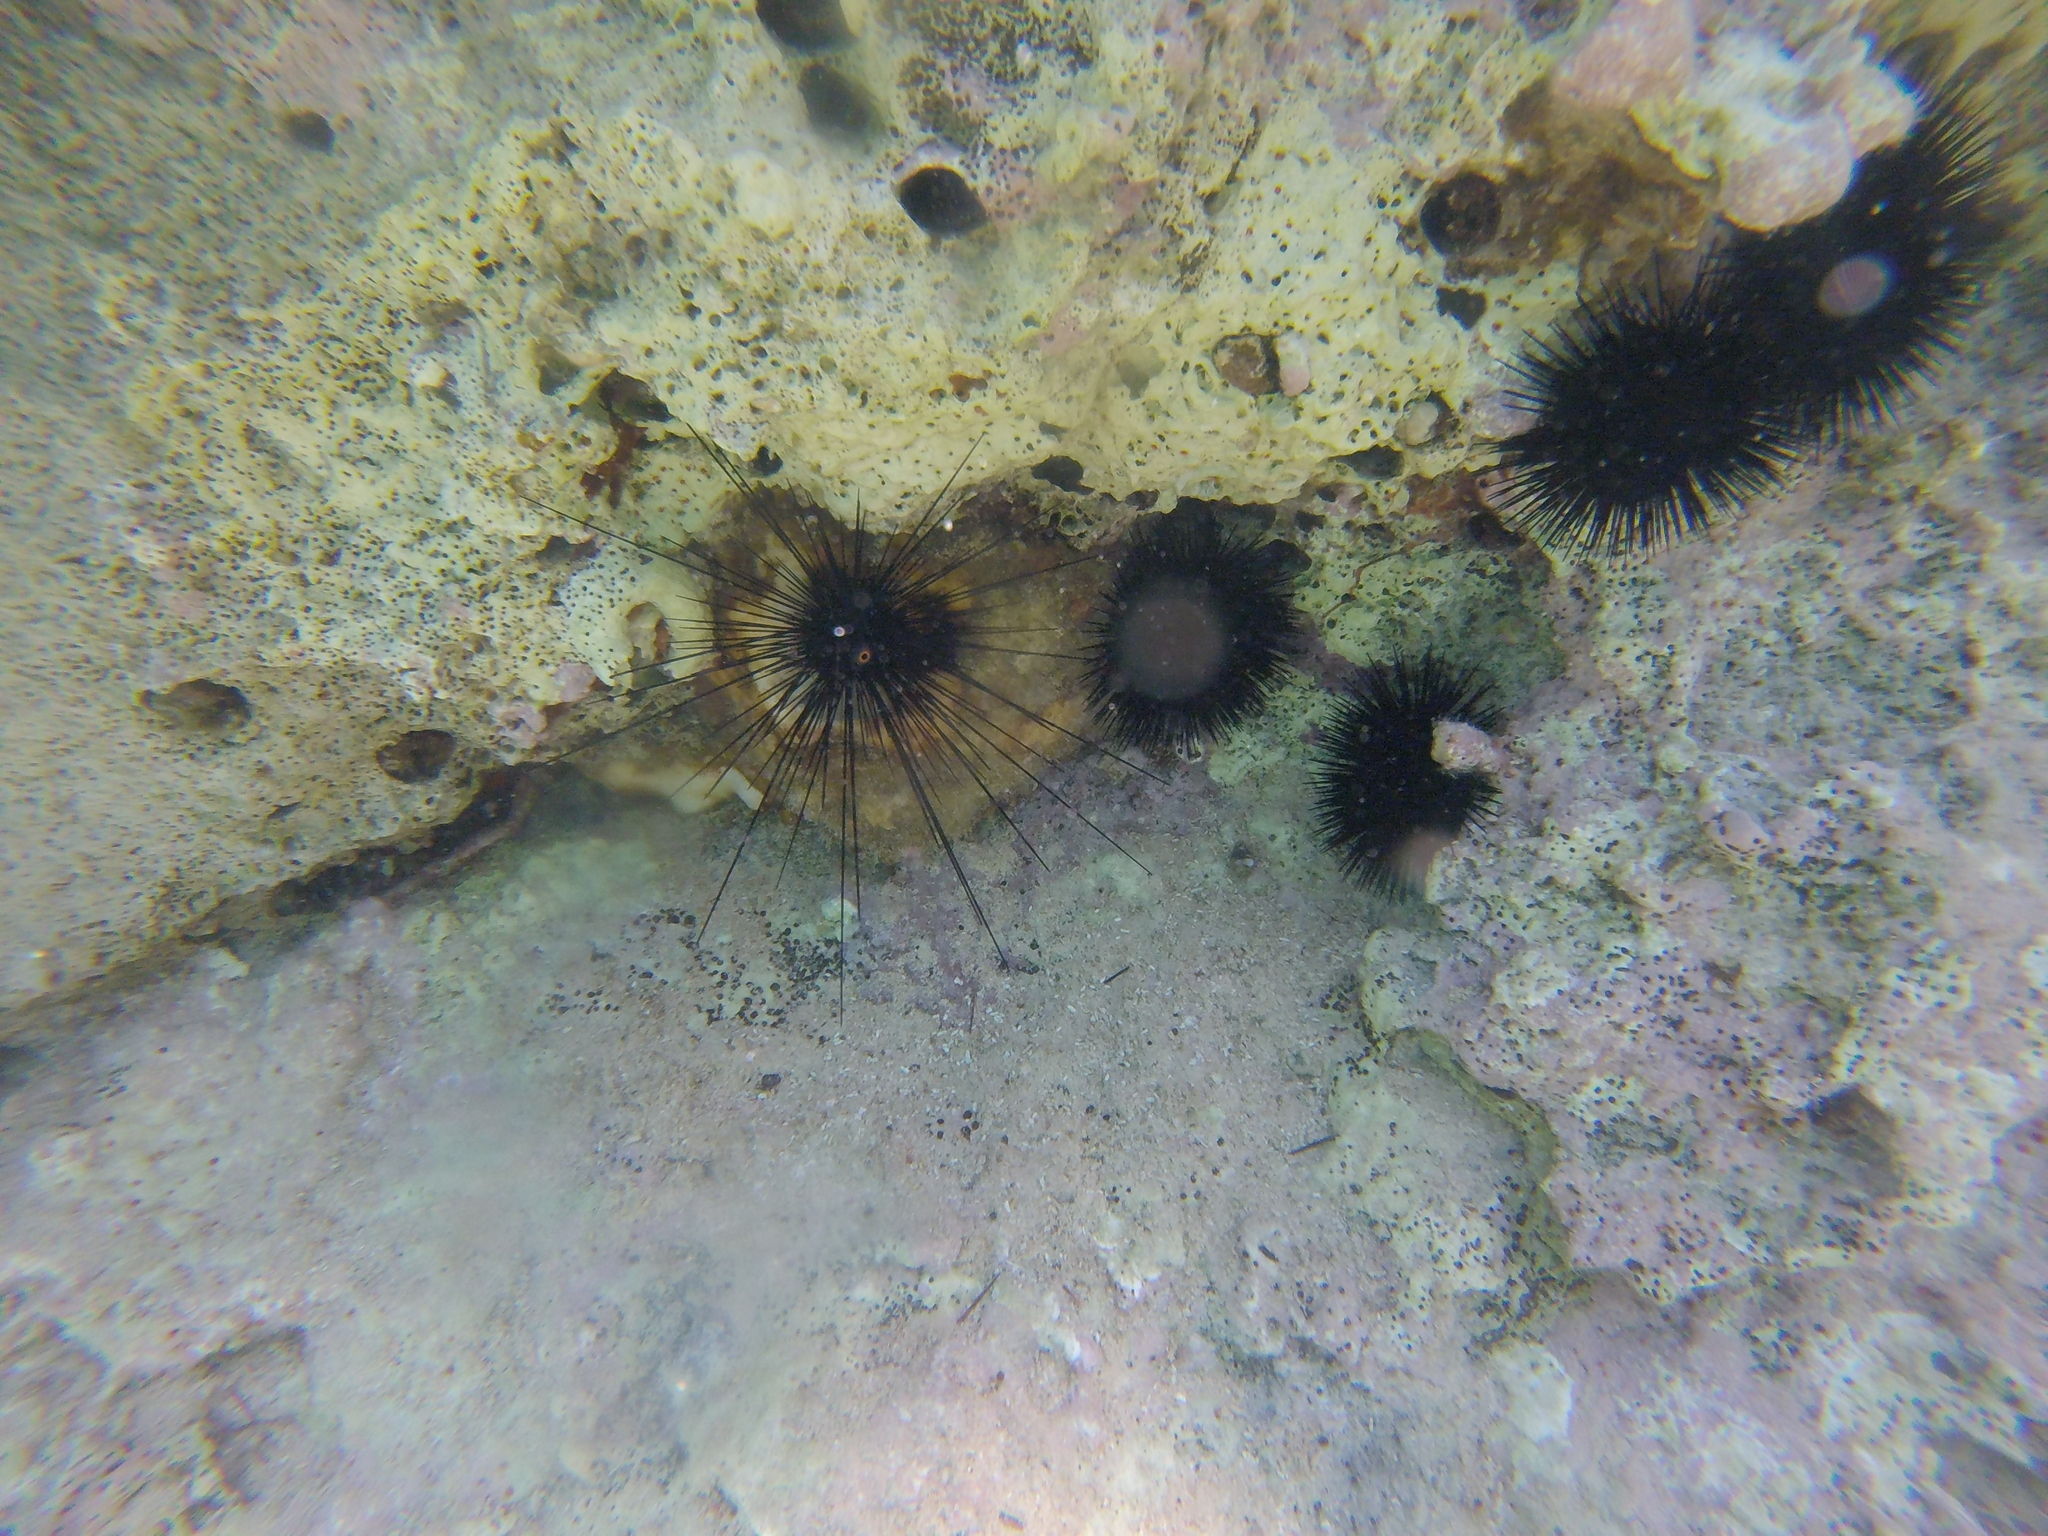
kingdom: Animalia
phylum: Echinodermata
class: Echinoidea
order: Diadematoida
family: Diadematidae
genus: Diadema
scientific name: Diadema setosum
